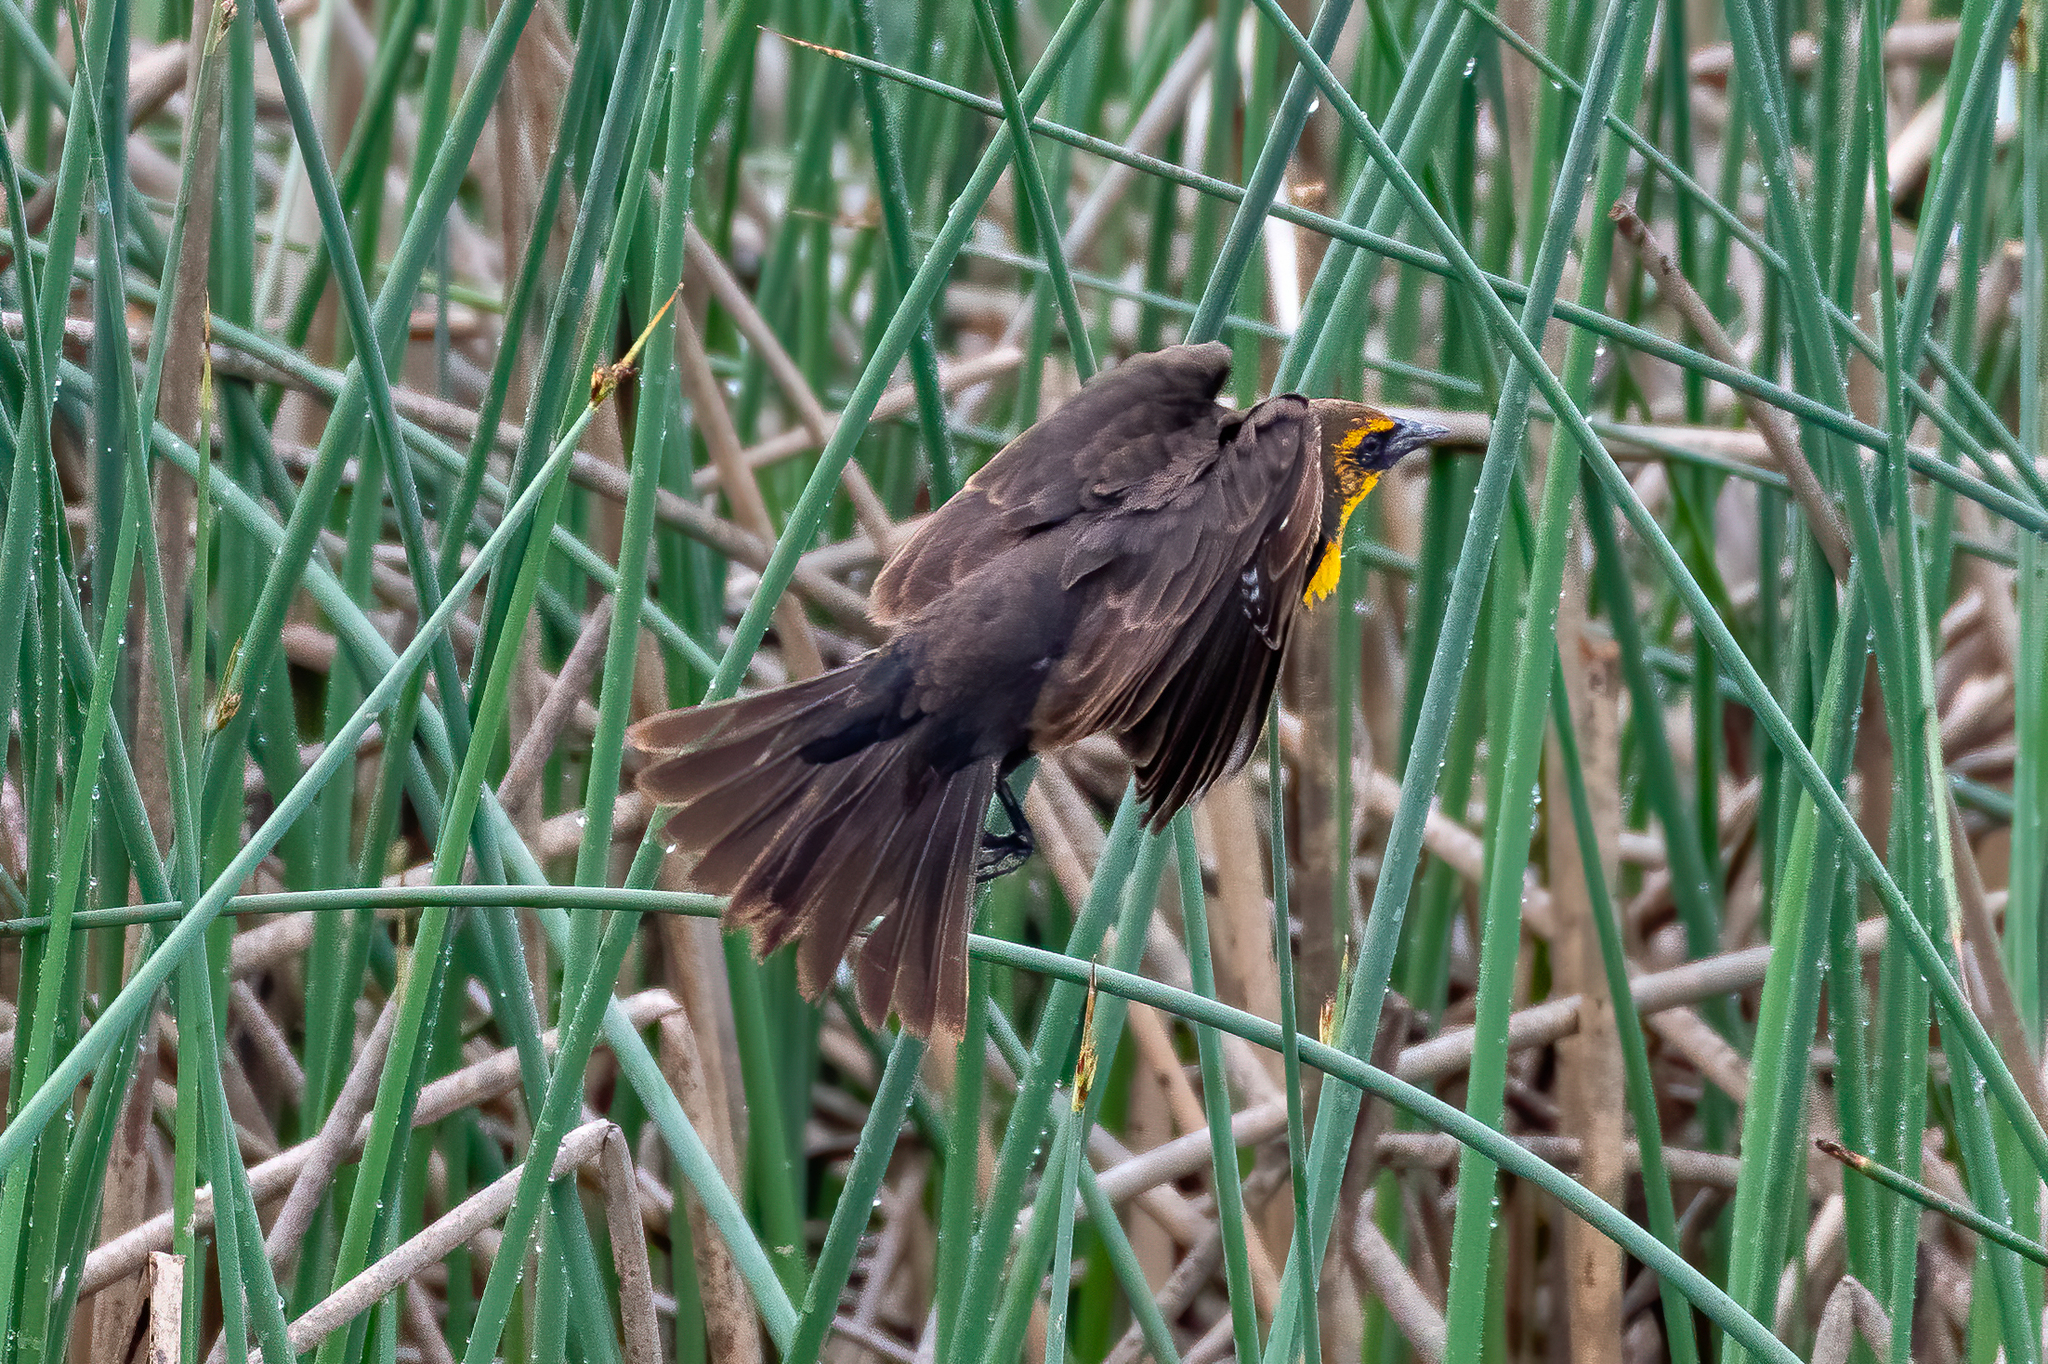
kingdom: Animalia
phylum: Chordata
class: Aves
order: Passeriformes
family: Icteridae
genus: Xanthocephalus
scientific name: Xanthocephalus xanthocephalus
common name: Yellow-headed blackbird
